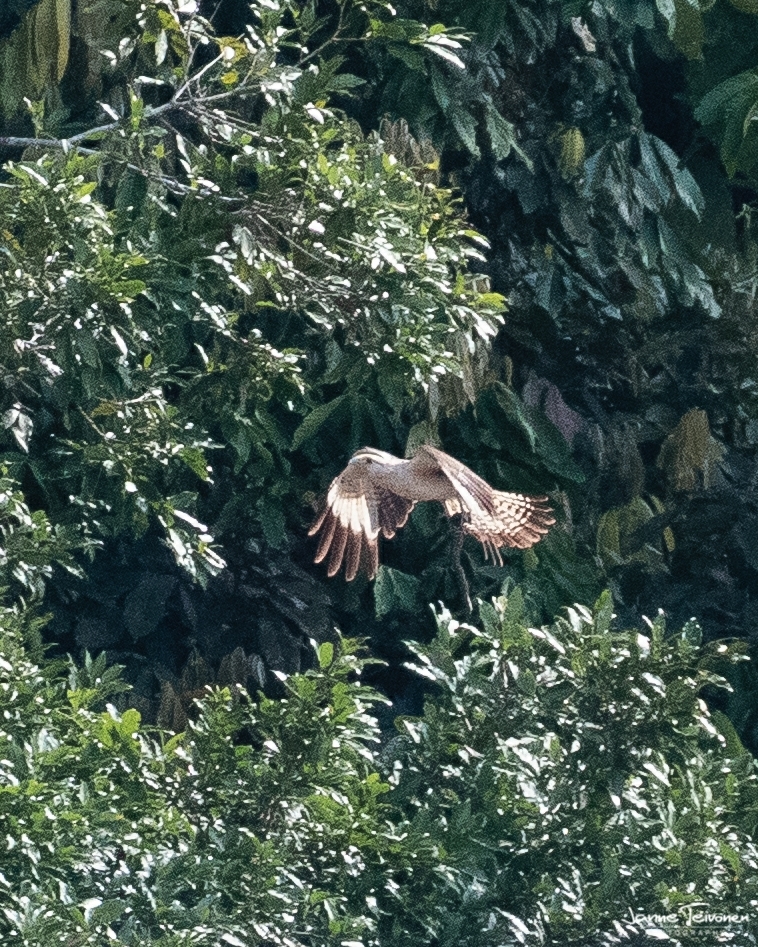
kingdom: Animalia
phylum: Chordata
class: Aves
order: Falconiformes
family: Falconidae
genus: Daptrius
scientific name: Daptrius
